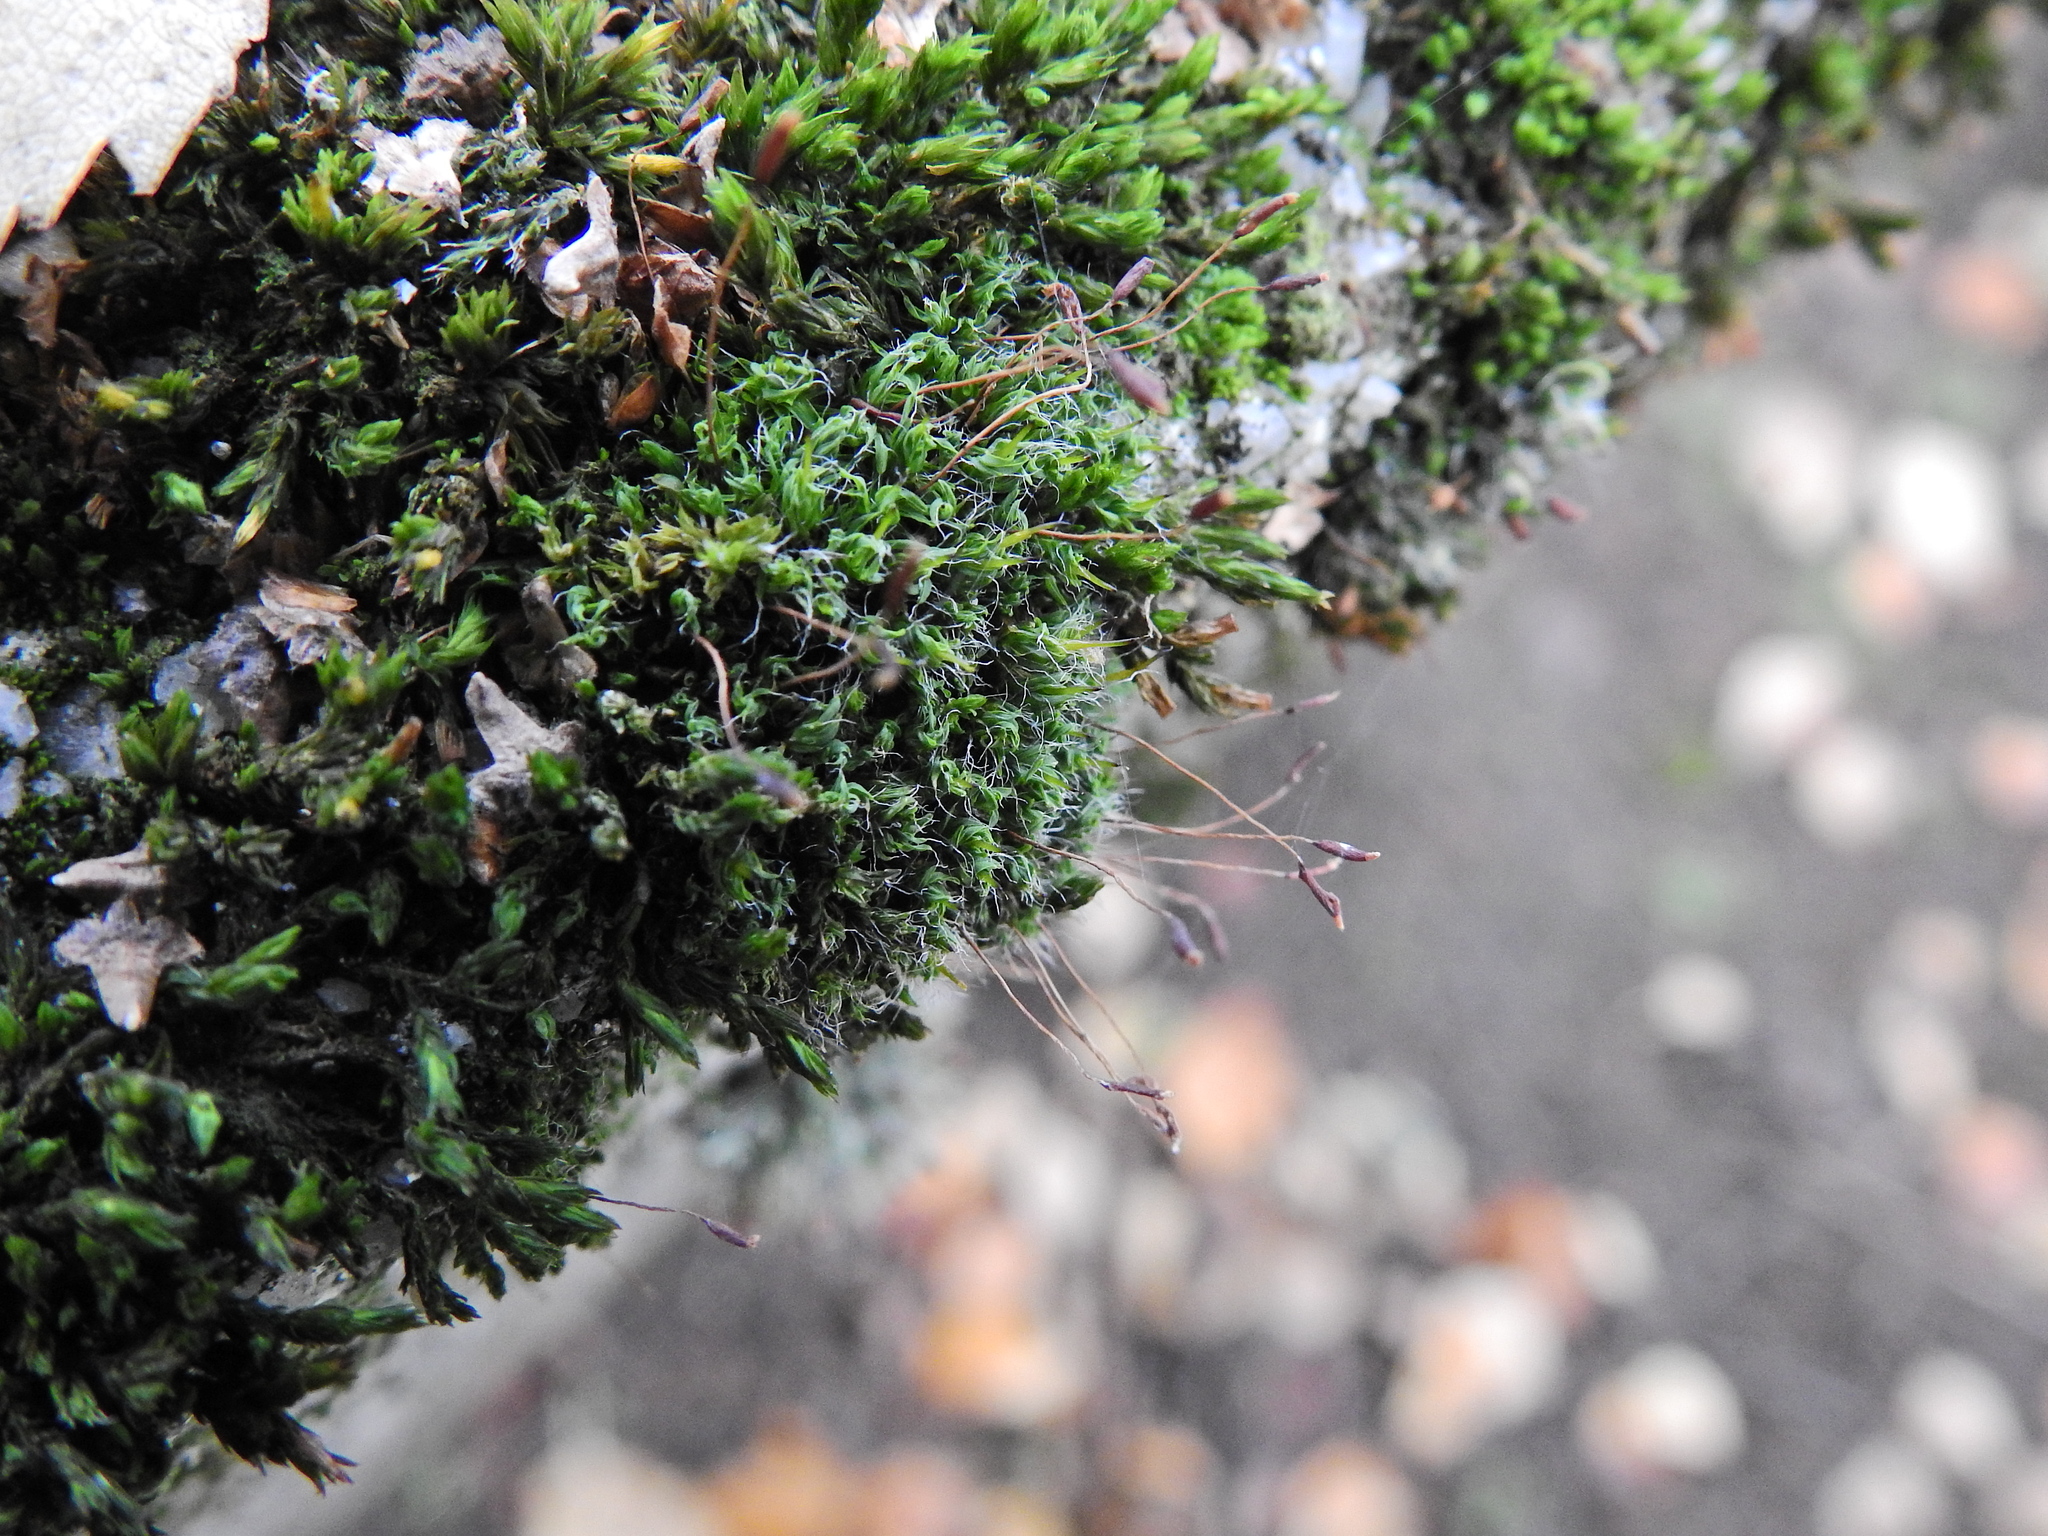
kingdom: Plantae
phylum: Bryophyta
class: Bryopsida
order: Pottiales
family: Pottiaceae
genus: Tortula
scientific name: Tortula muralis
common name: Wall screw-moss
